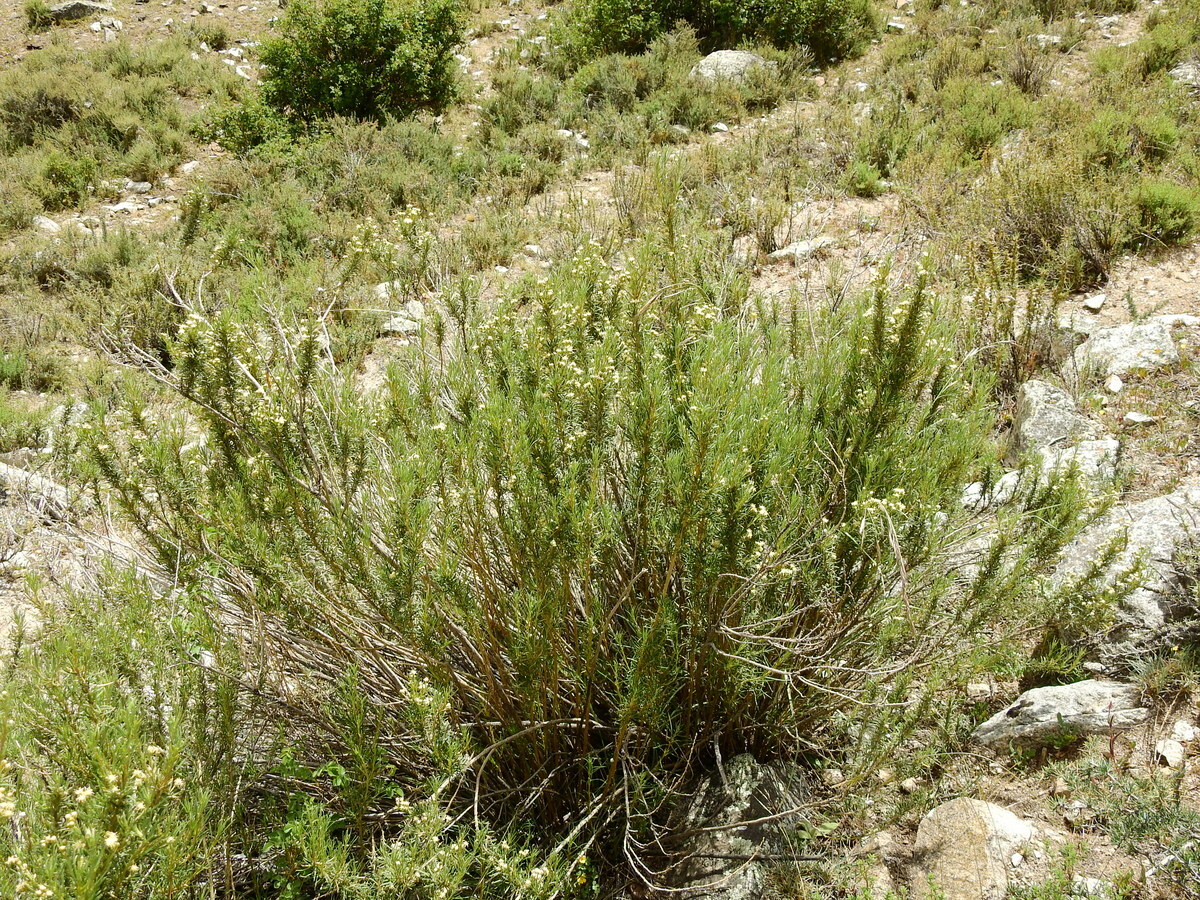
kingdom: Plantae
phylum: Tracheophyta
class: Magnoliopsida
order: Asterales
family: Asteraceae
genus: Baccharis
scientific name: Baccharis grisebachii
